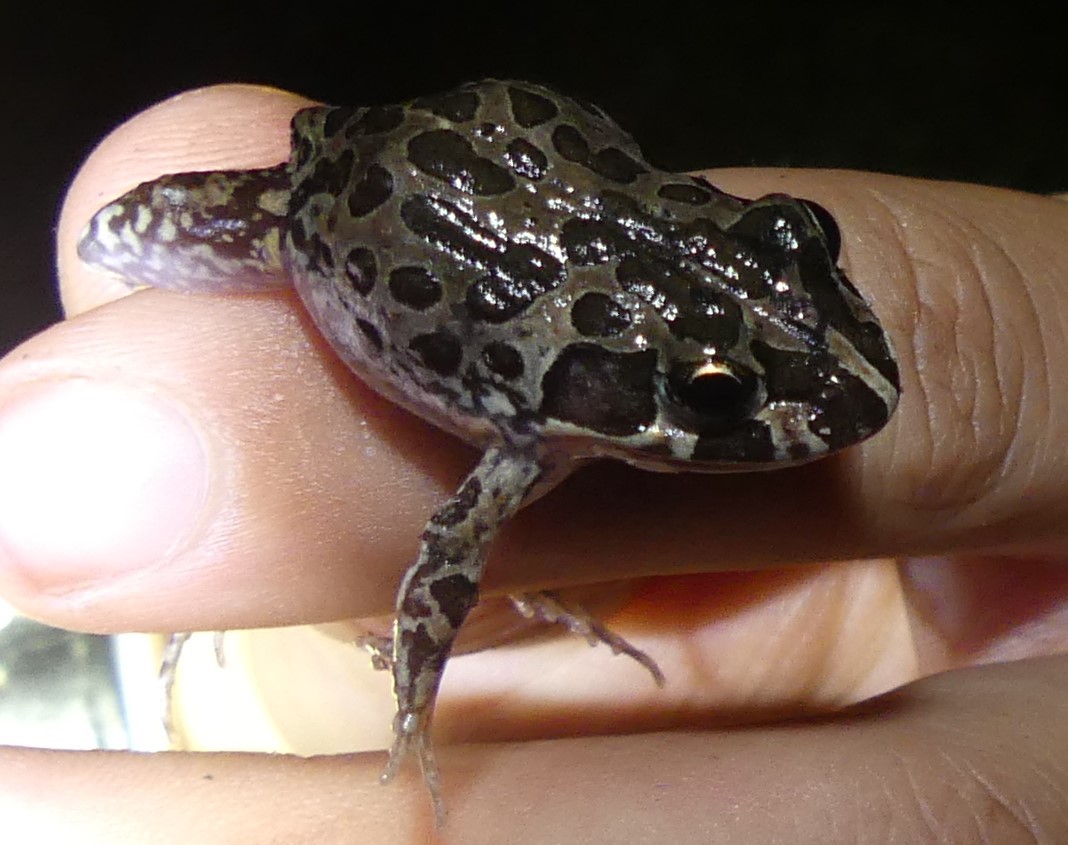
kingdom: Animalia
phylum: Chordata
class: Amphibia
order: Anura
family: Limnodynastidae
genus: Limnodynastes
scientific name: Limnodynastes tasmaniensis
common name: Spotted marsh frog
